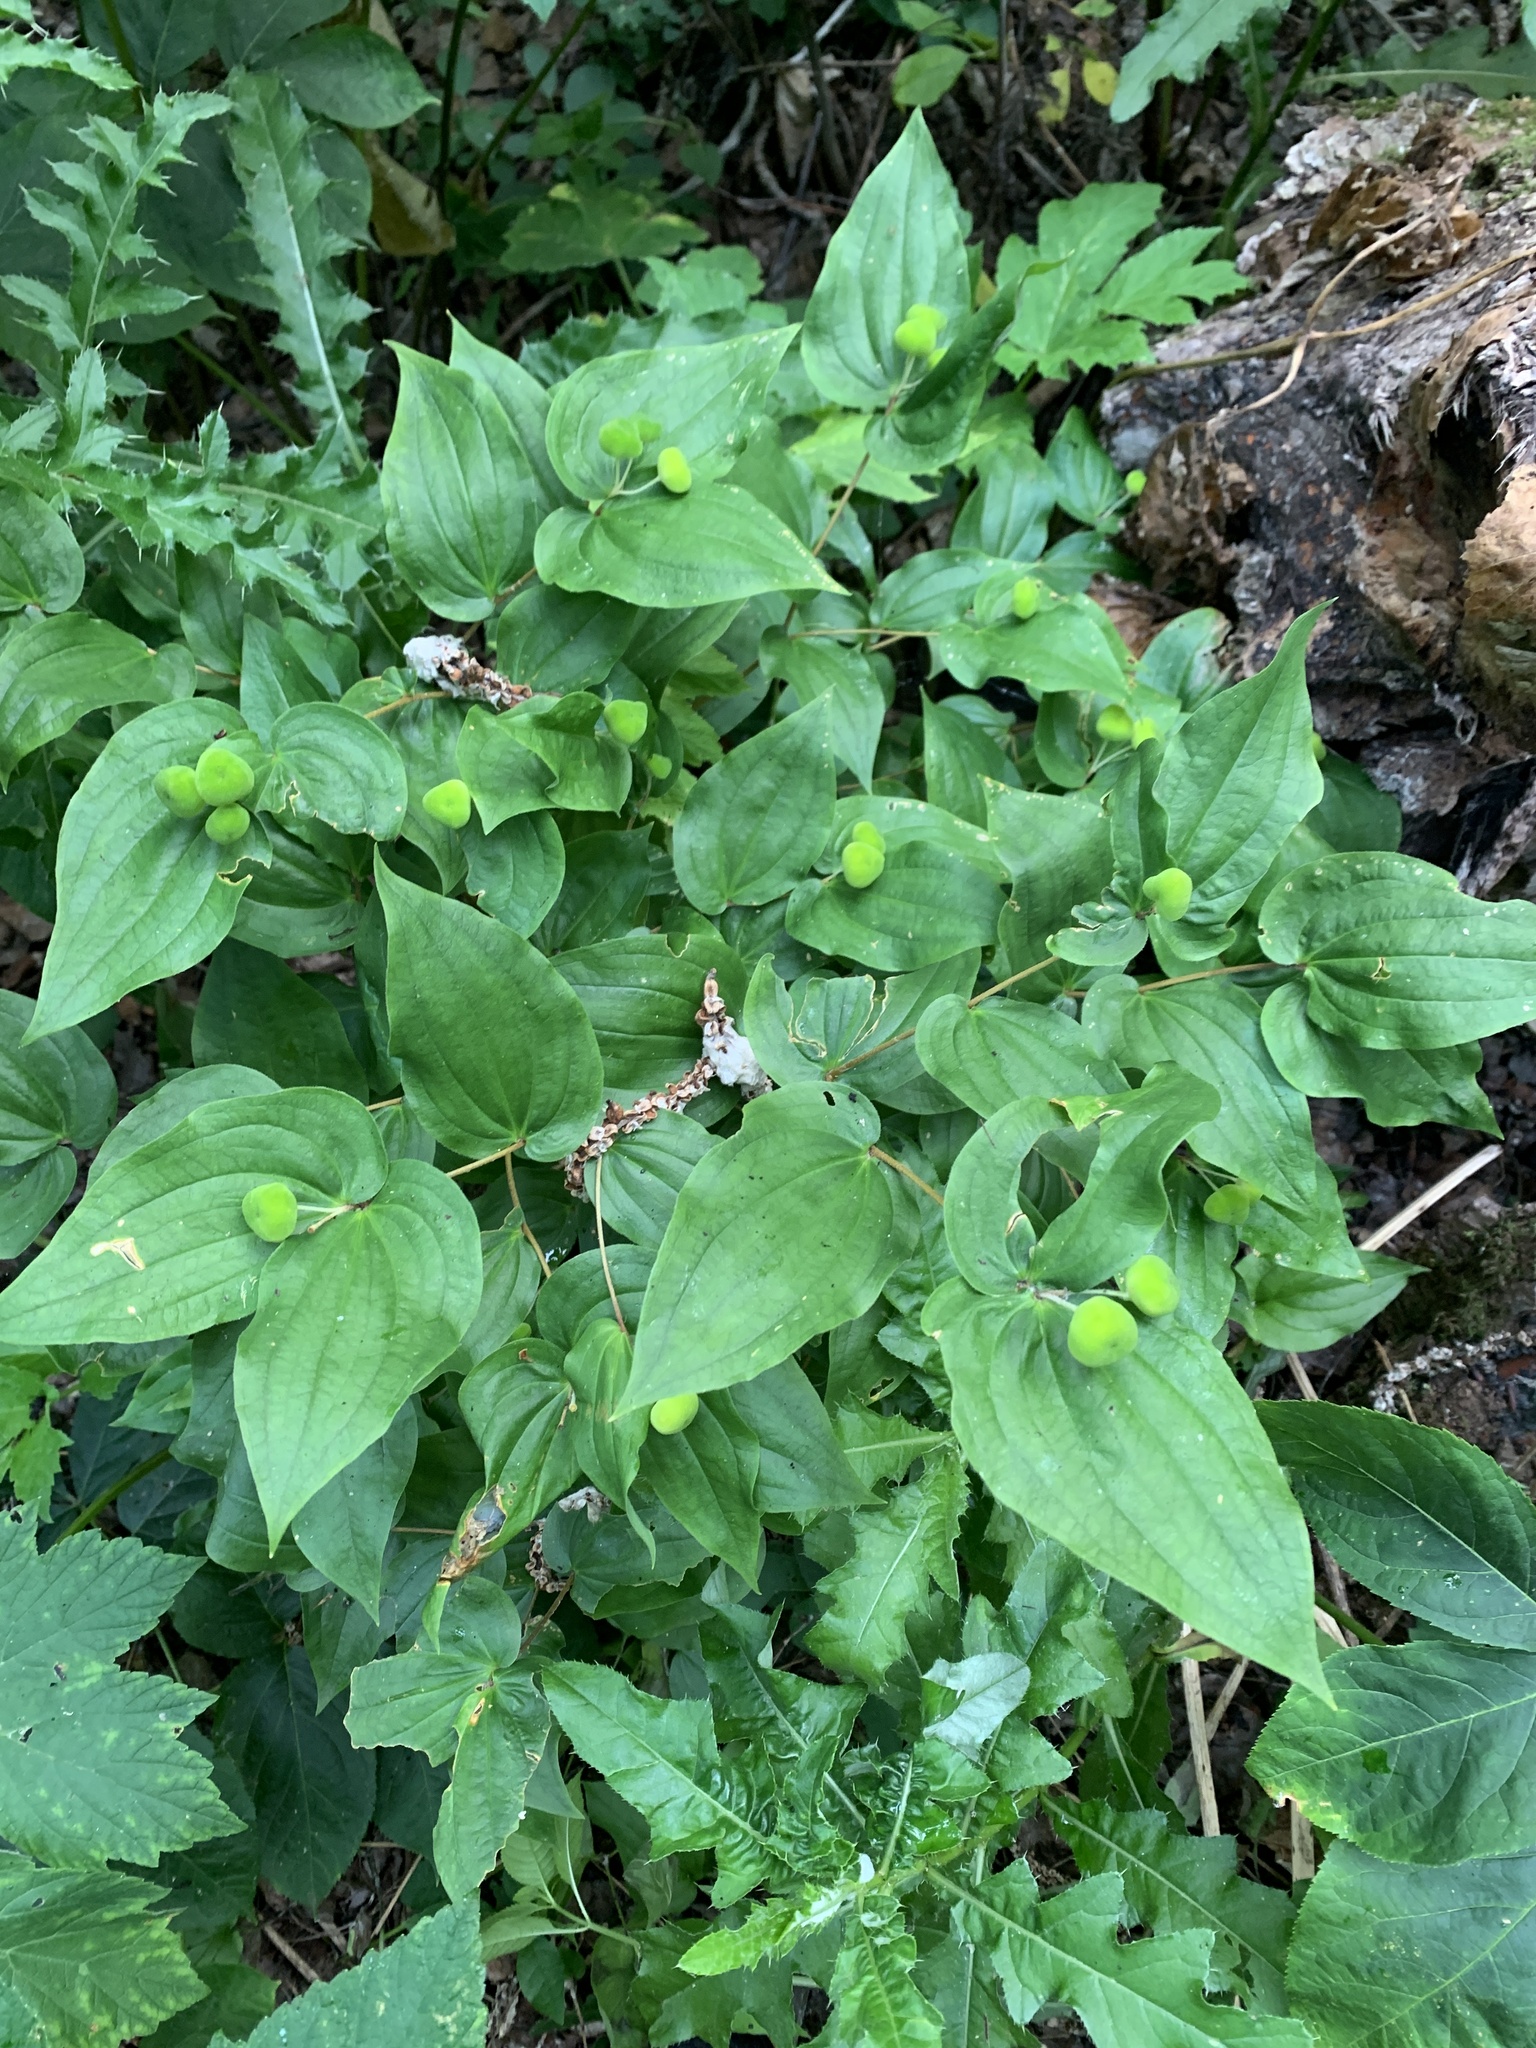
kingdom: Plantae
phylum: Tracheophyta
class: Liliopsida
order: Liliales
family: Liliaceae
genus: Prosartes
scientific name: Prosartes trachycarpa
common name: Rough-fruit fairy-bells
